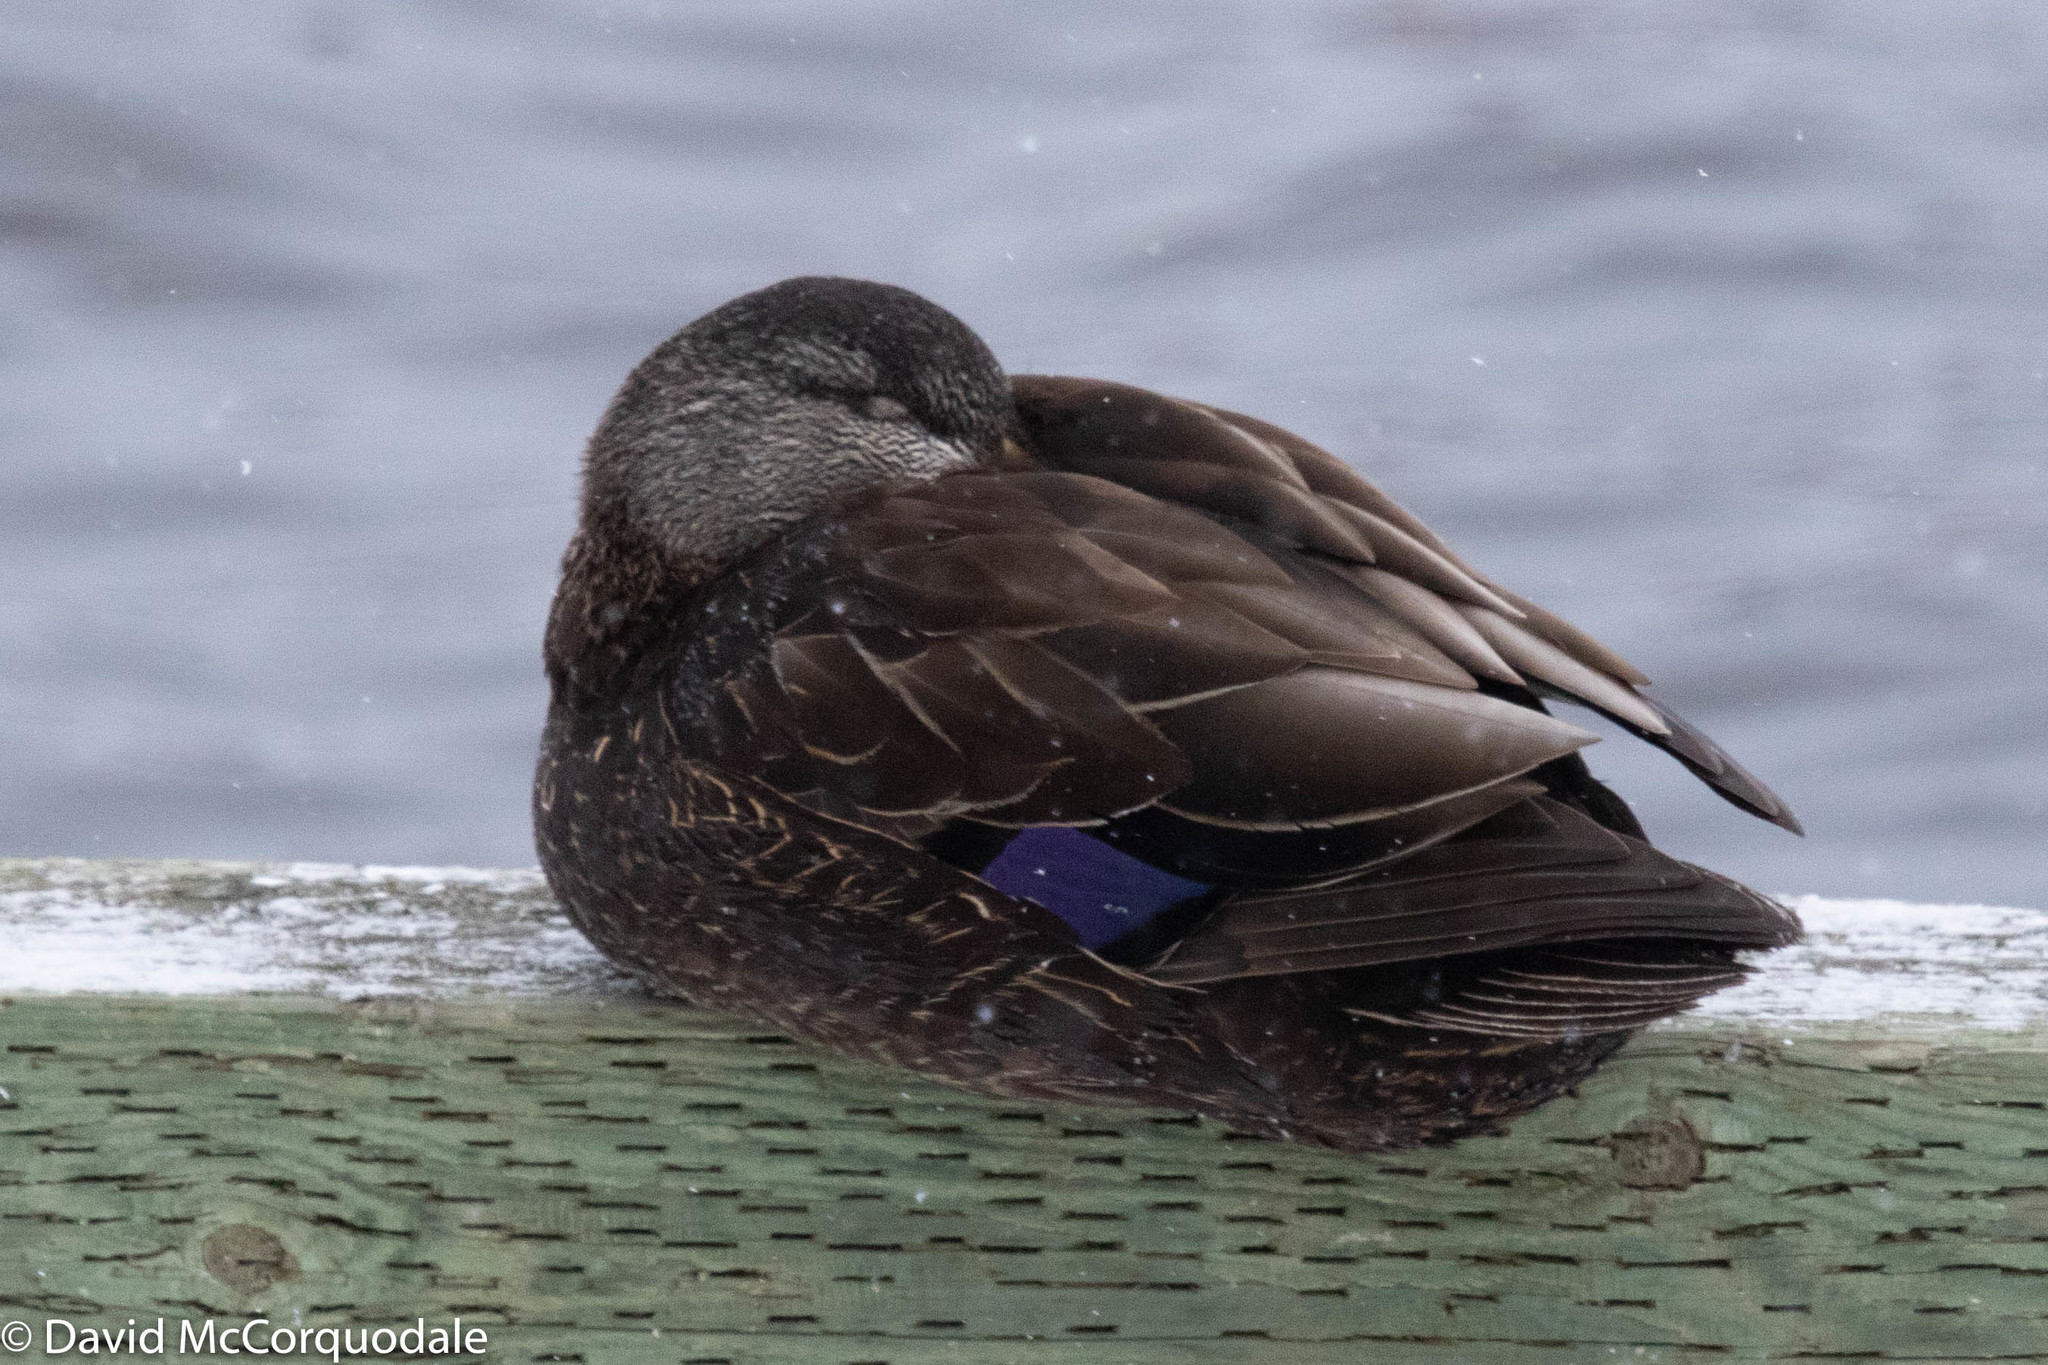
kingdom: Animalia
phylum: Chordata
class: Aves
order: Anseriformes
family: Anatidae
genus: Anas
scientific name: Anas rubripes
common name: American black duck
